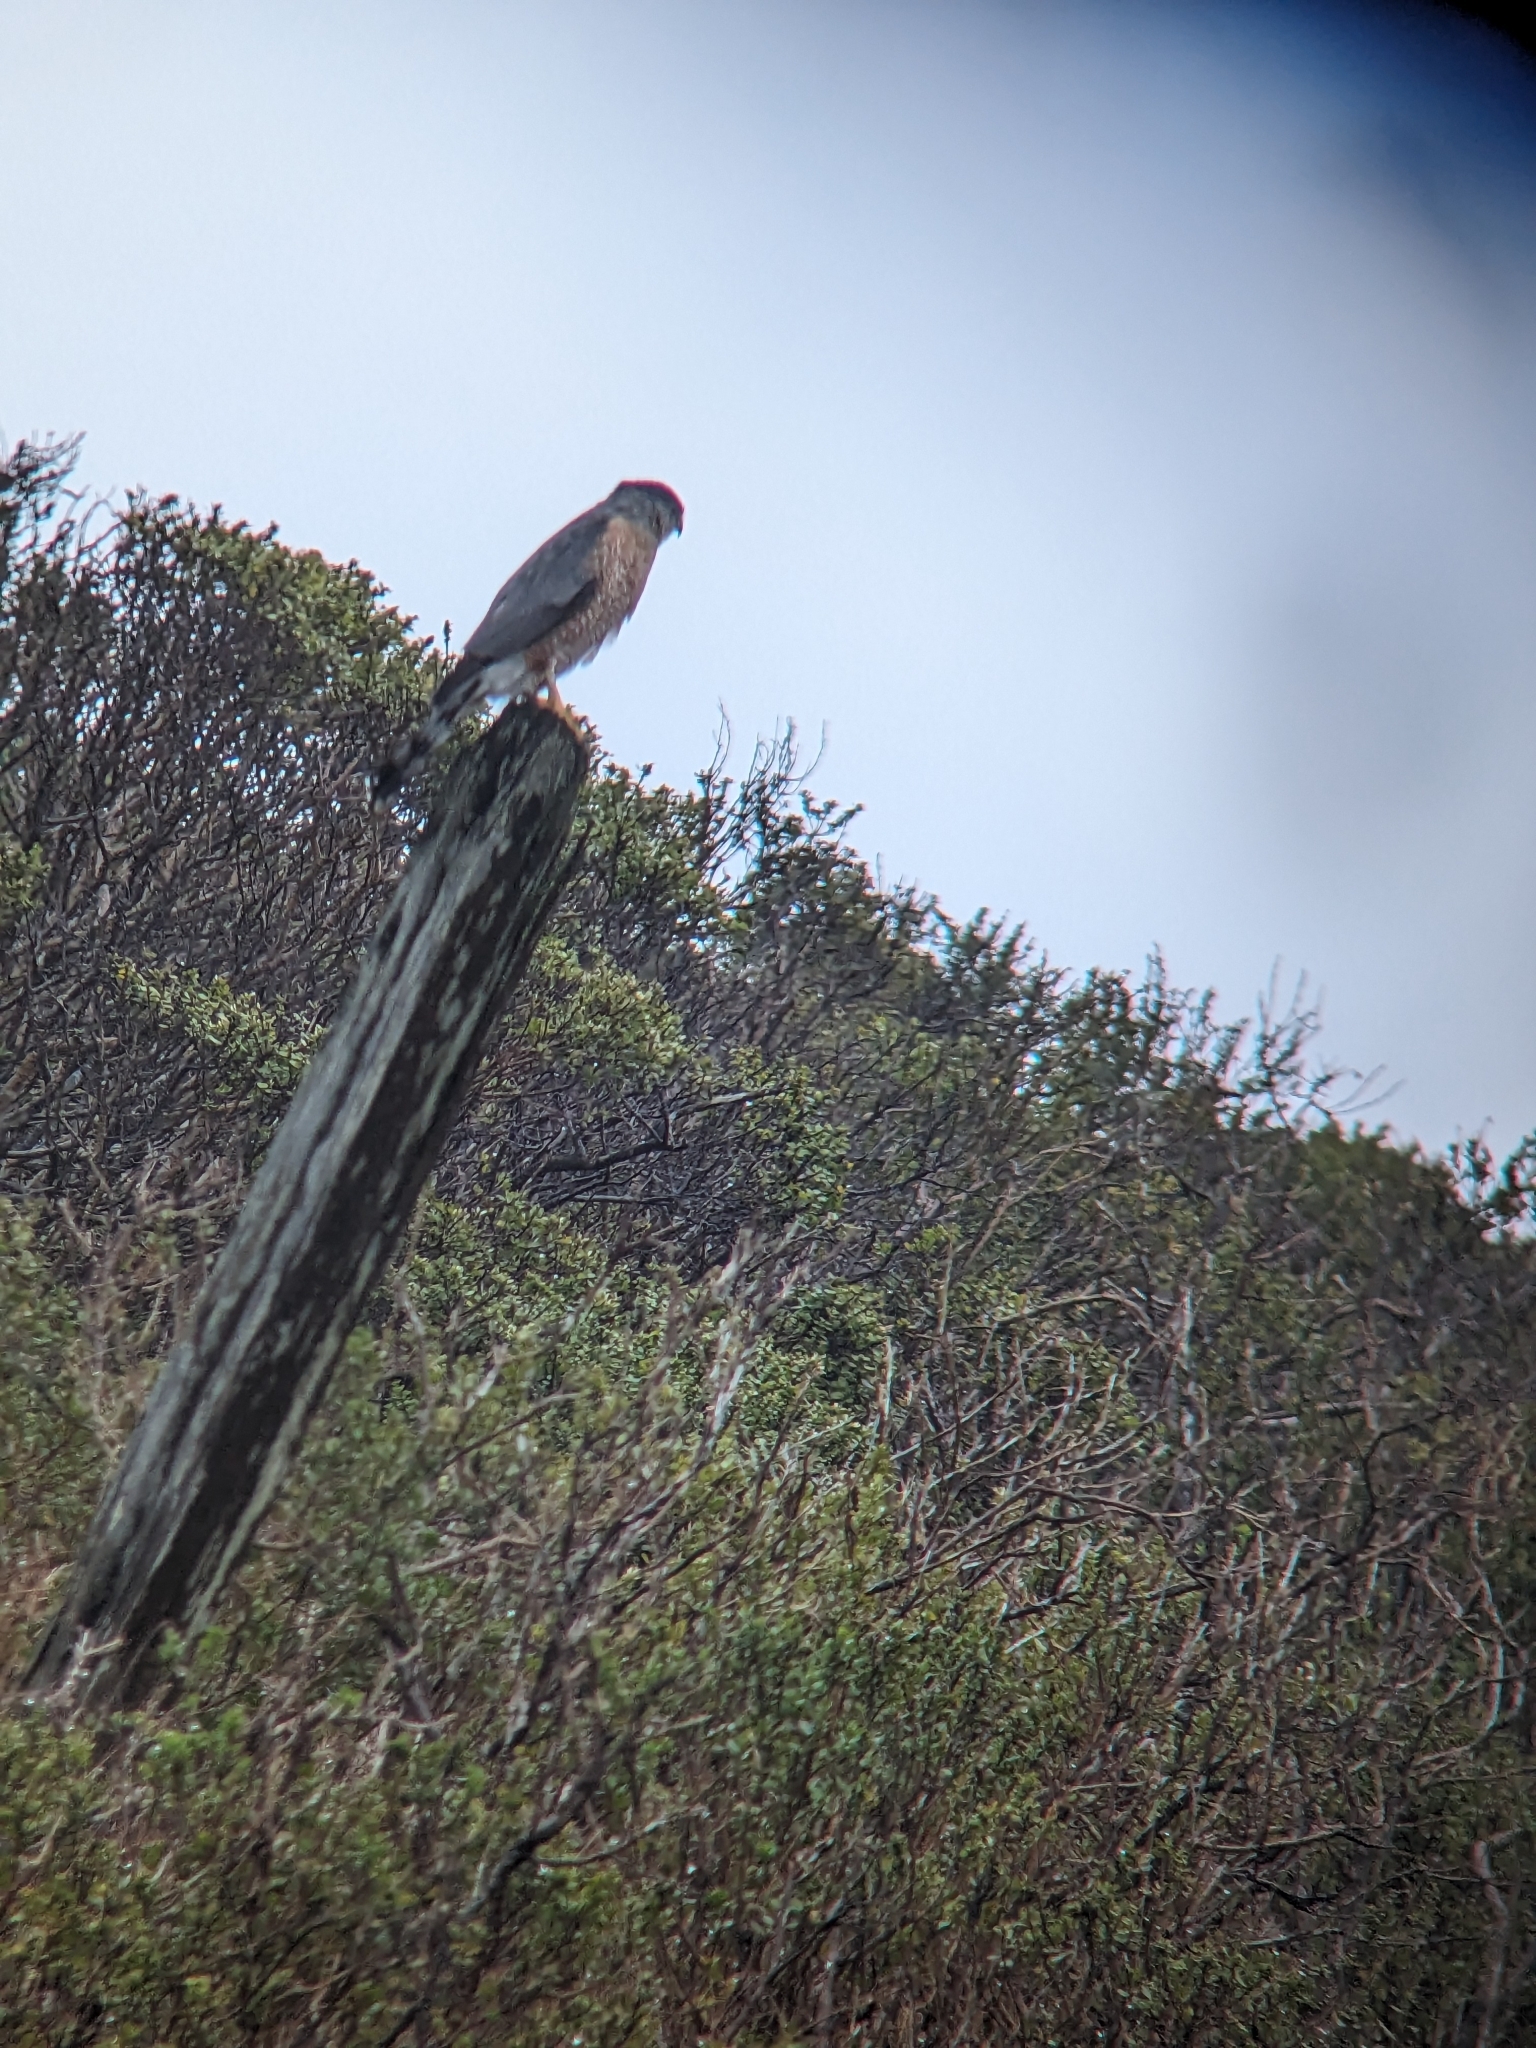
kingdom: Animalia
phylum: Chordata
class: Aves
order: Accipitriformes
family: Accipitridae
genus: Accipiter
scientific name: Accipiter cooperii
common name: Cooper's hawk
